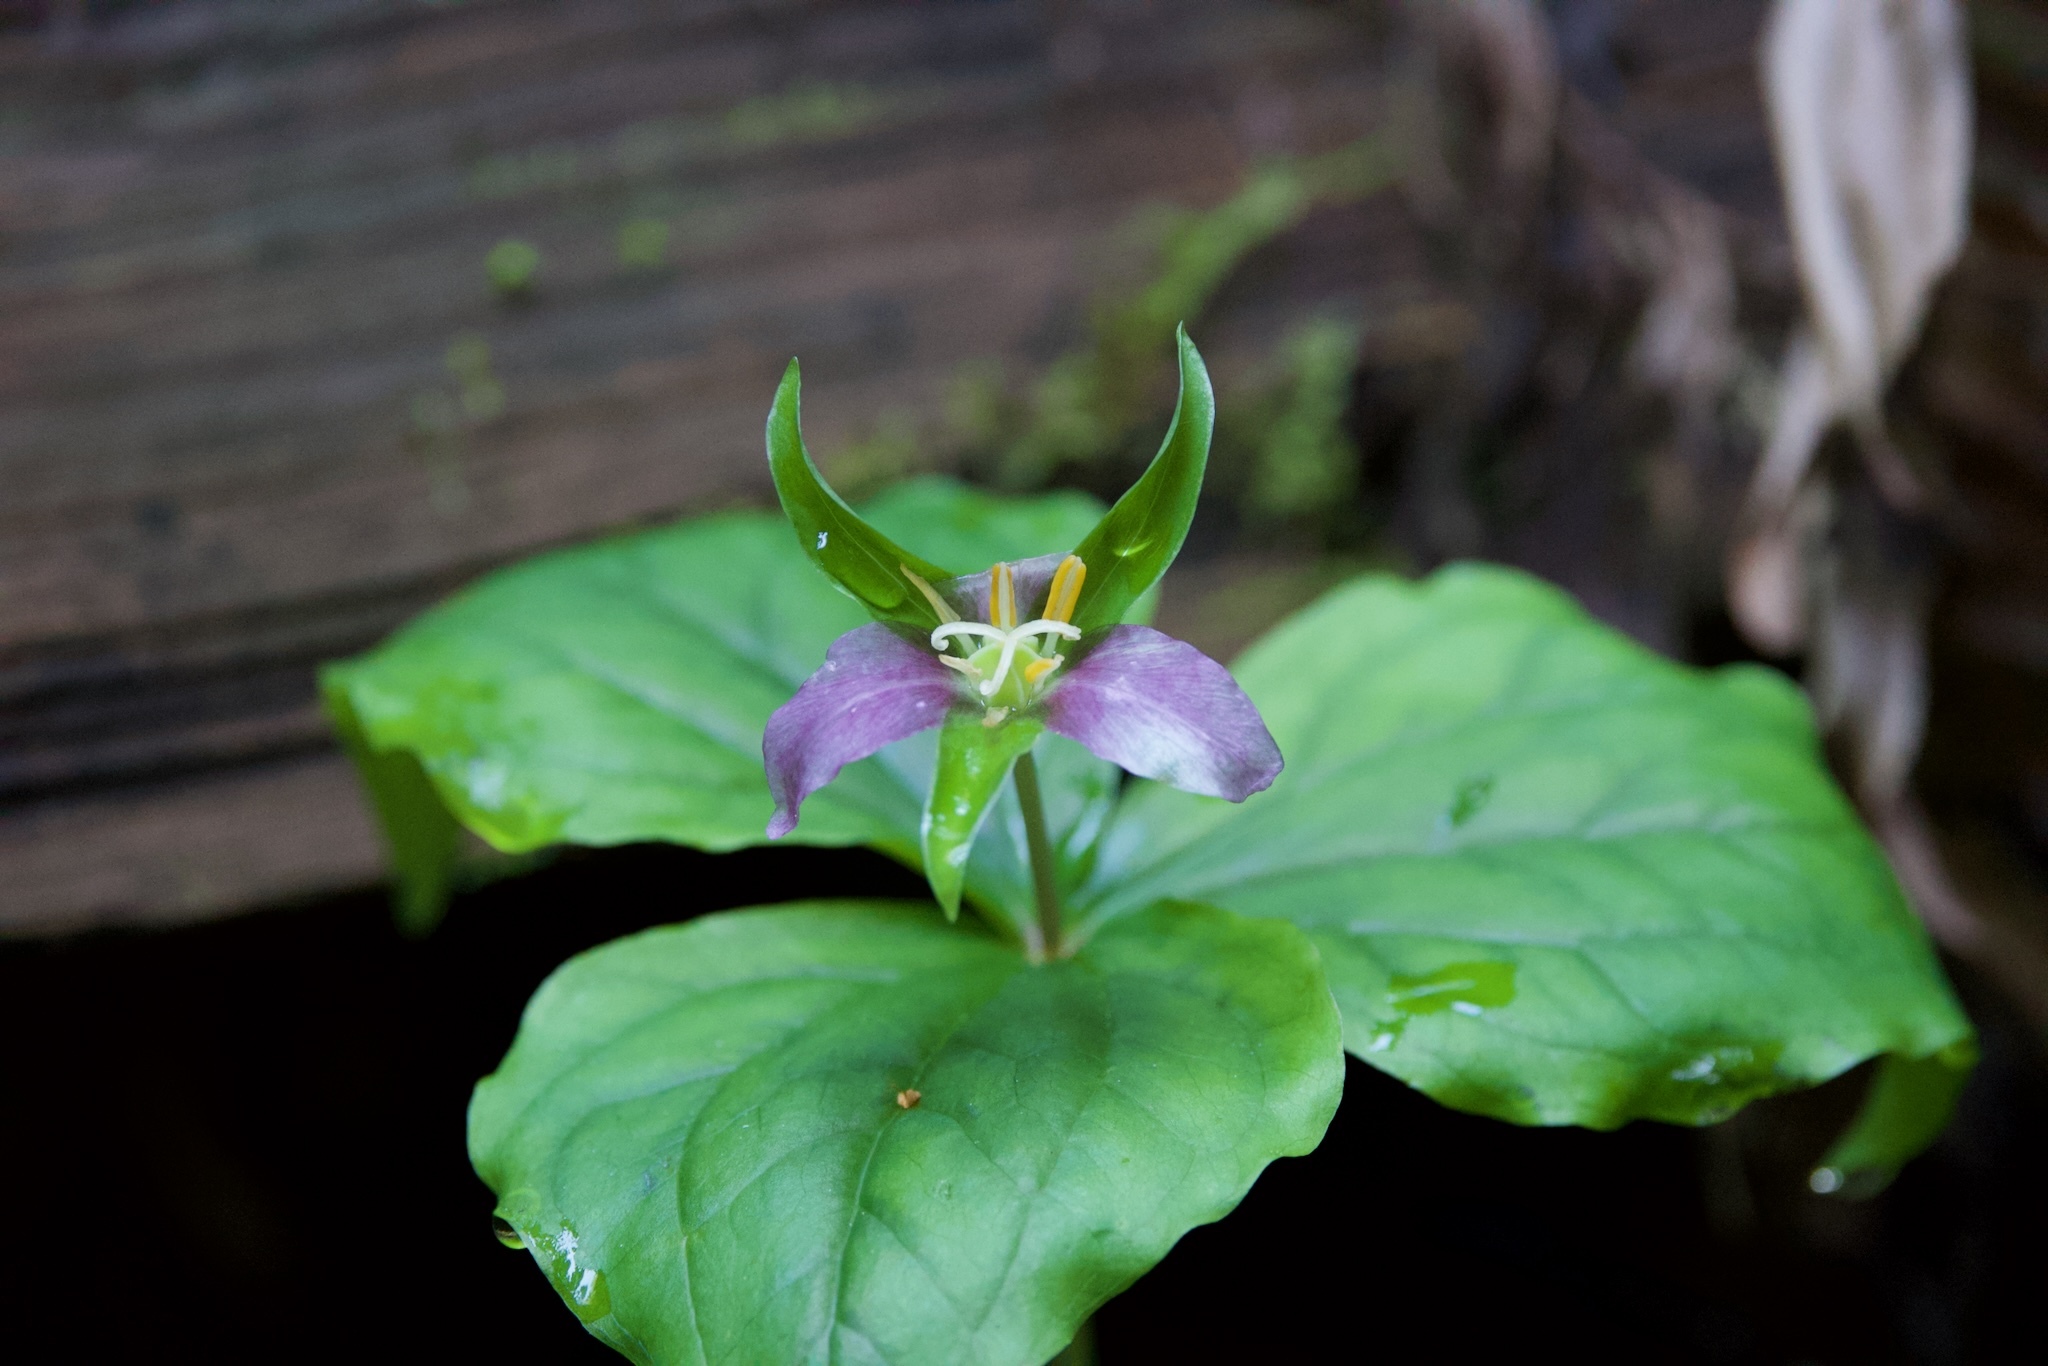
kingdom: Plantae
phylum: Tracheophyta
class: Liliopsida
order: Liliales
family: Melanthiaceae
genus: Trillium
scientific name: Trillium ovatum
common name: Pacific trillium
